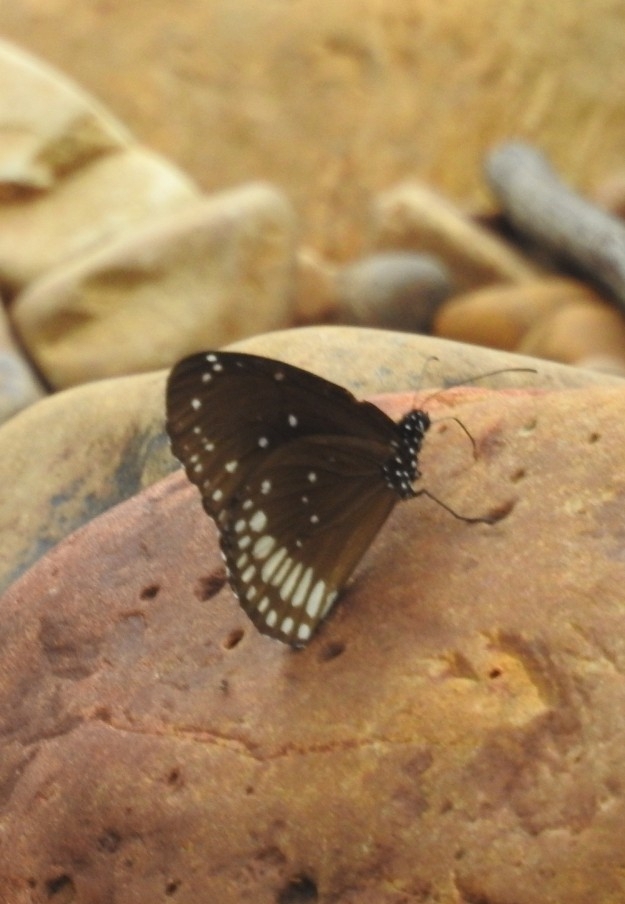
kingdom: Animalia
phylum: Arthropoda
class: Insecta
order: Lepidoptera
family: Nymphalidae
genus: Euploea
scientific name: Euploea core
